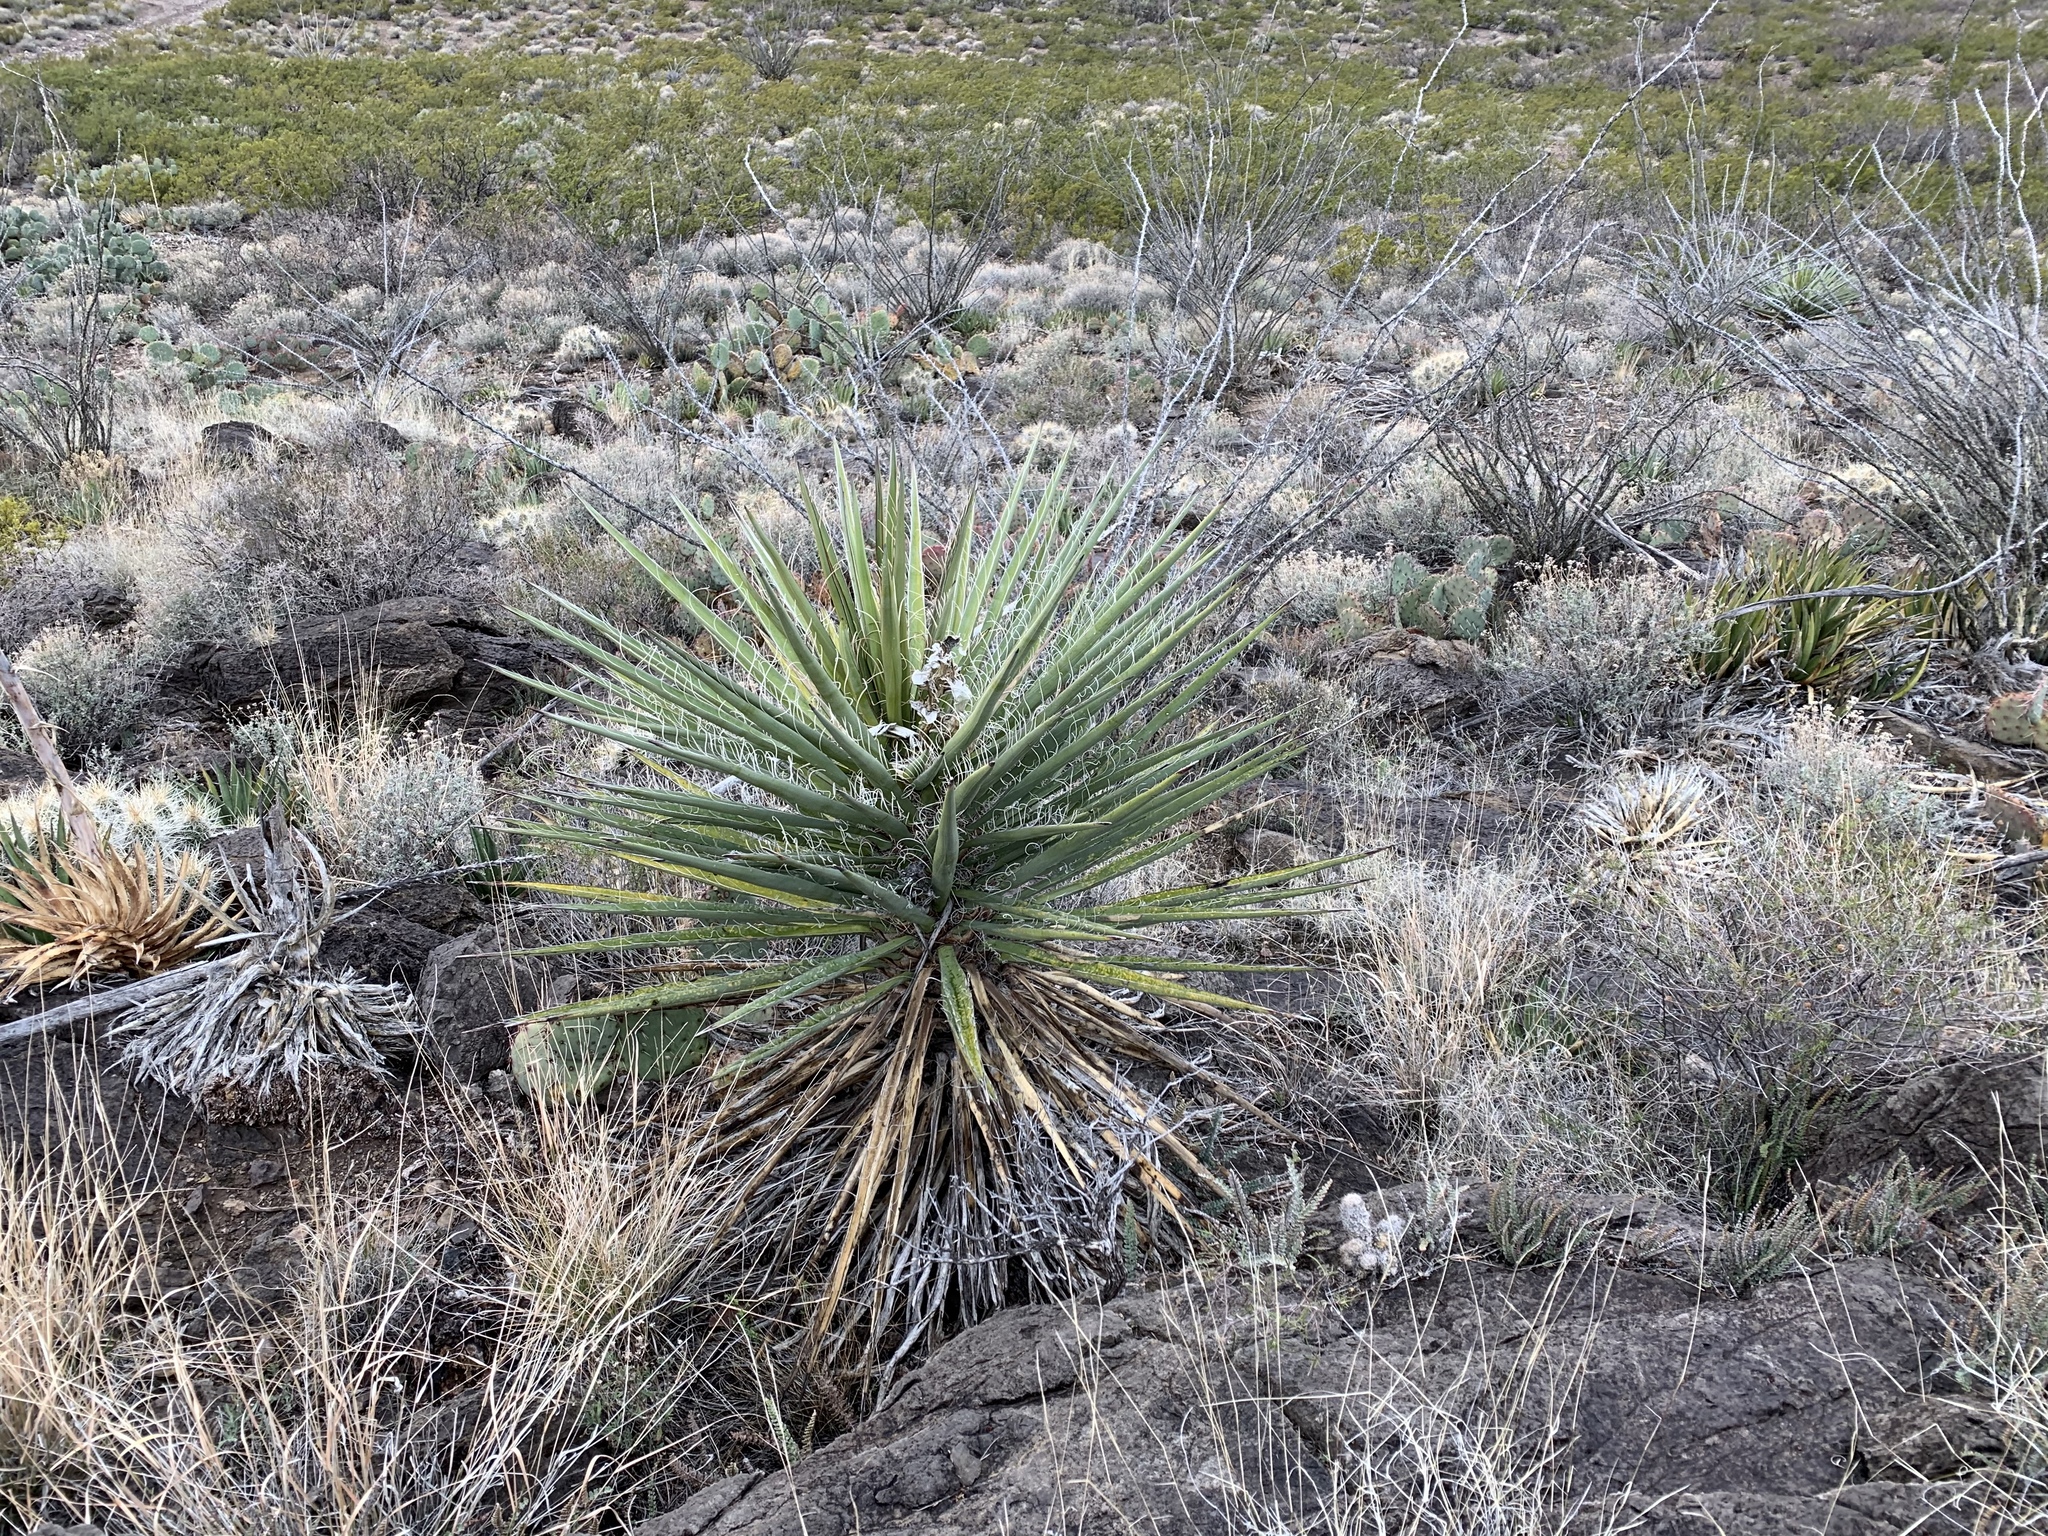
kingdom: Plantae
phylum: Tracheophyta
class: Liliopsida
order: Asparagales
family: Asparagaceae
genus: Yucca
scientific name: Yucca treculiana
